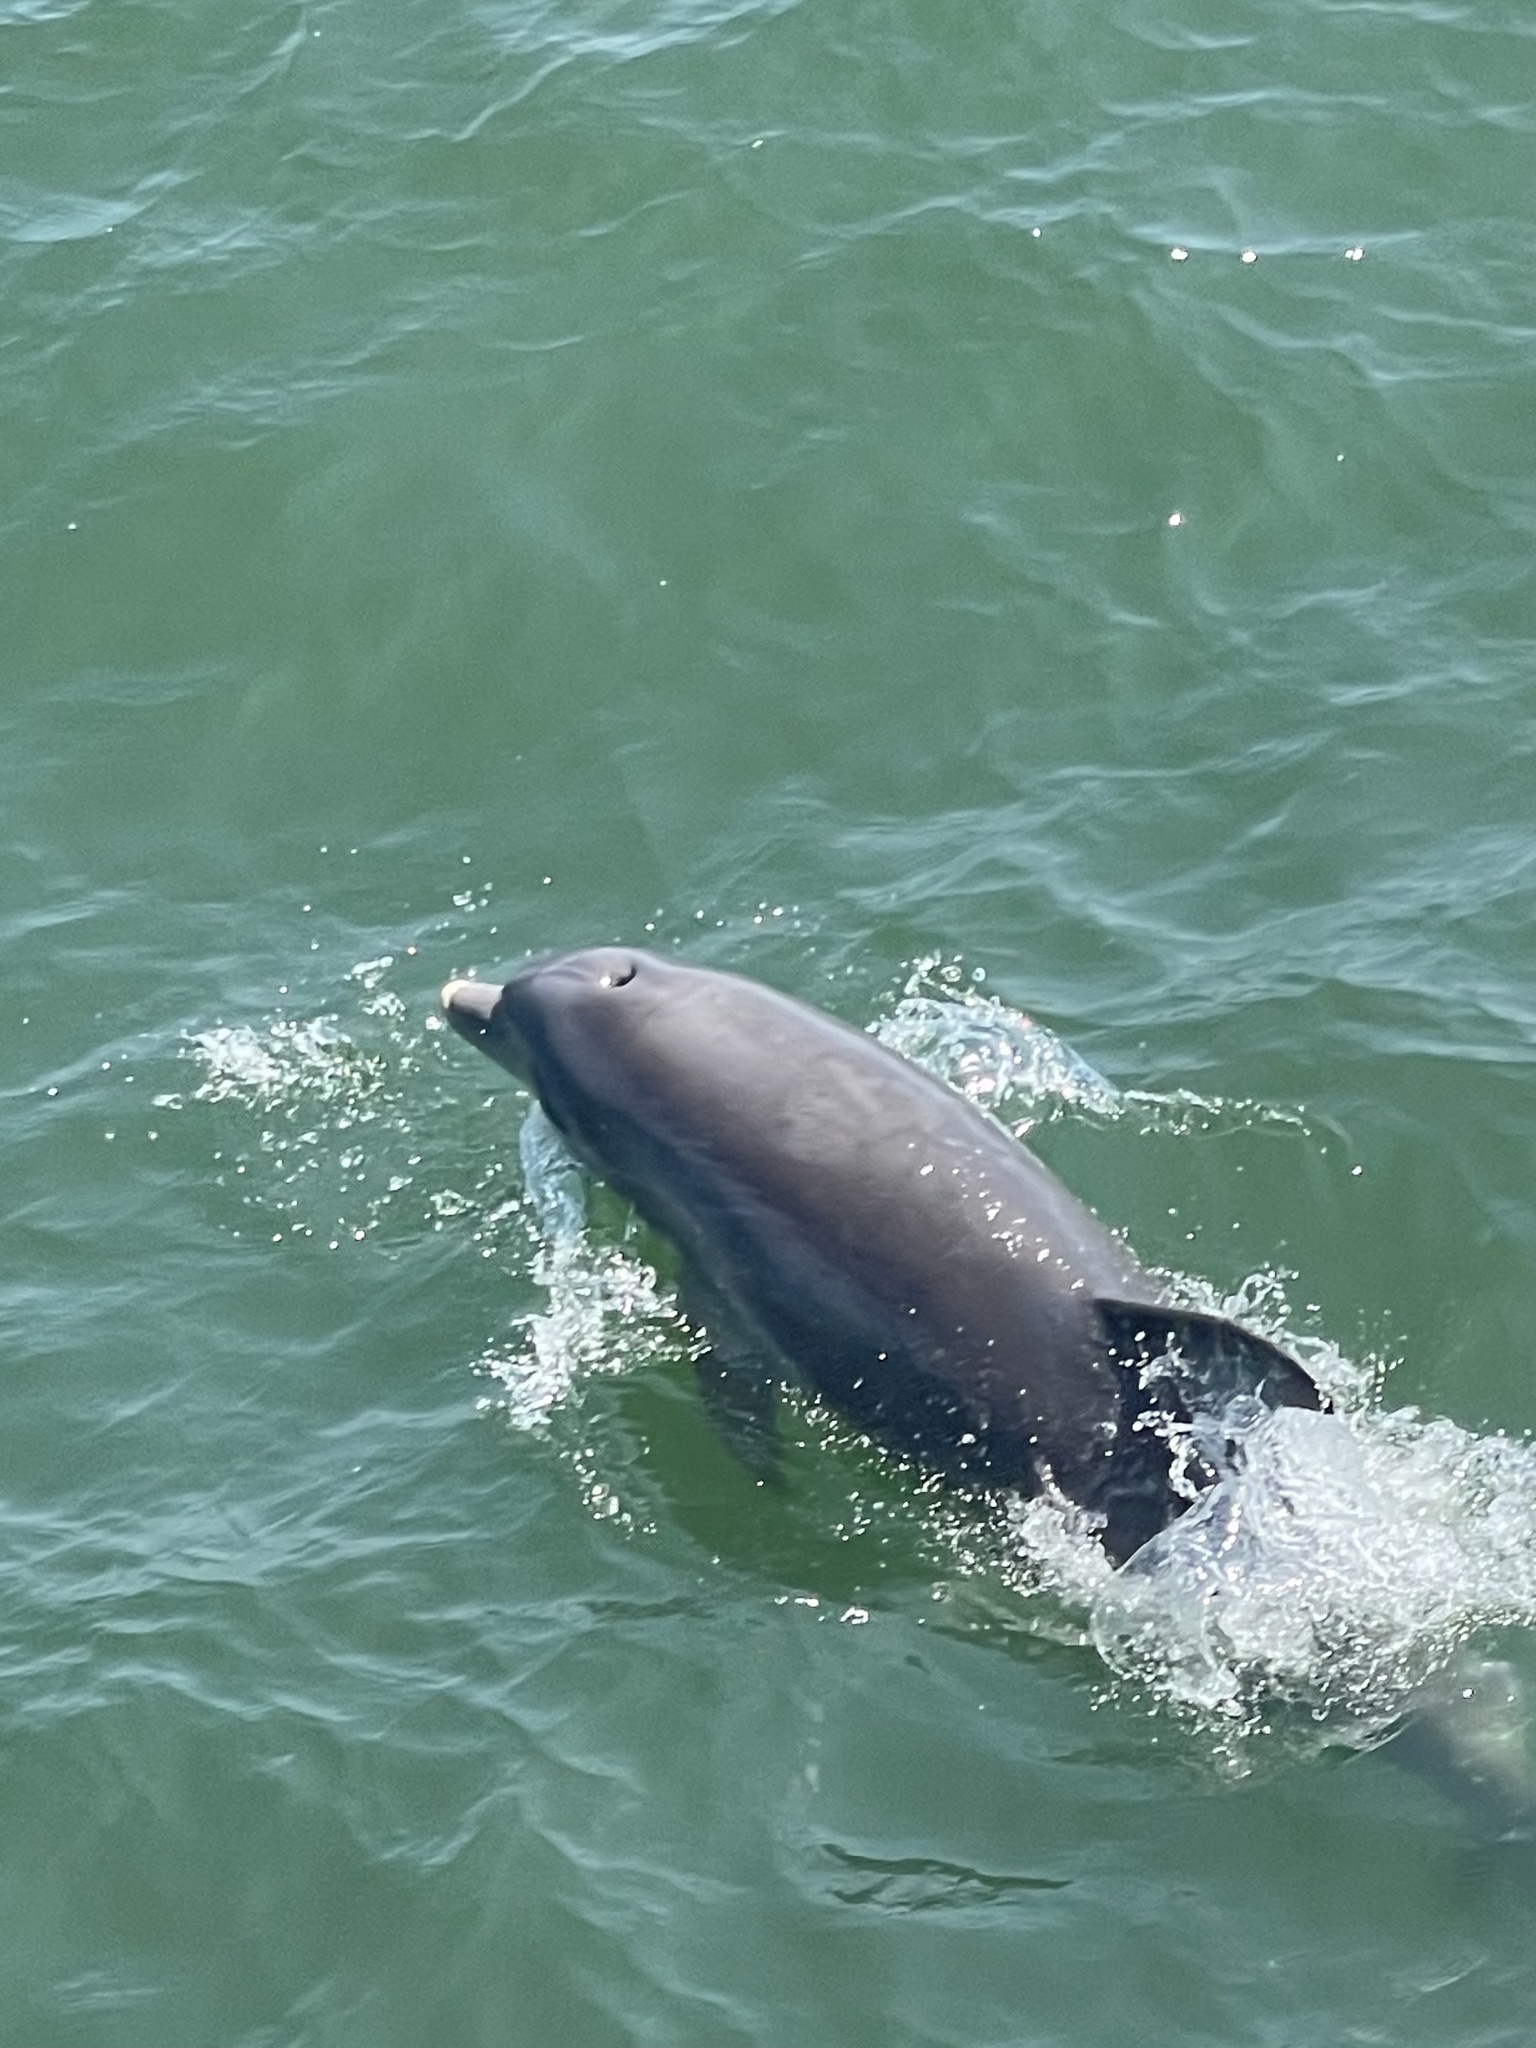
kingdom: Animalia
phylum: Chordata
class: Mammalia
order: Cetacea
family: Delphinidae
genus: Tursiops
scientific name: Tursiops truncatus
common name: Bottlenose dolphin
